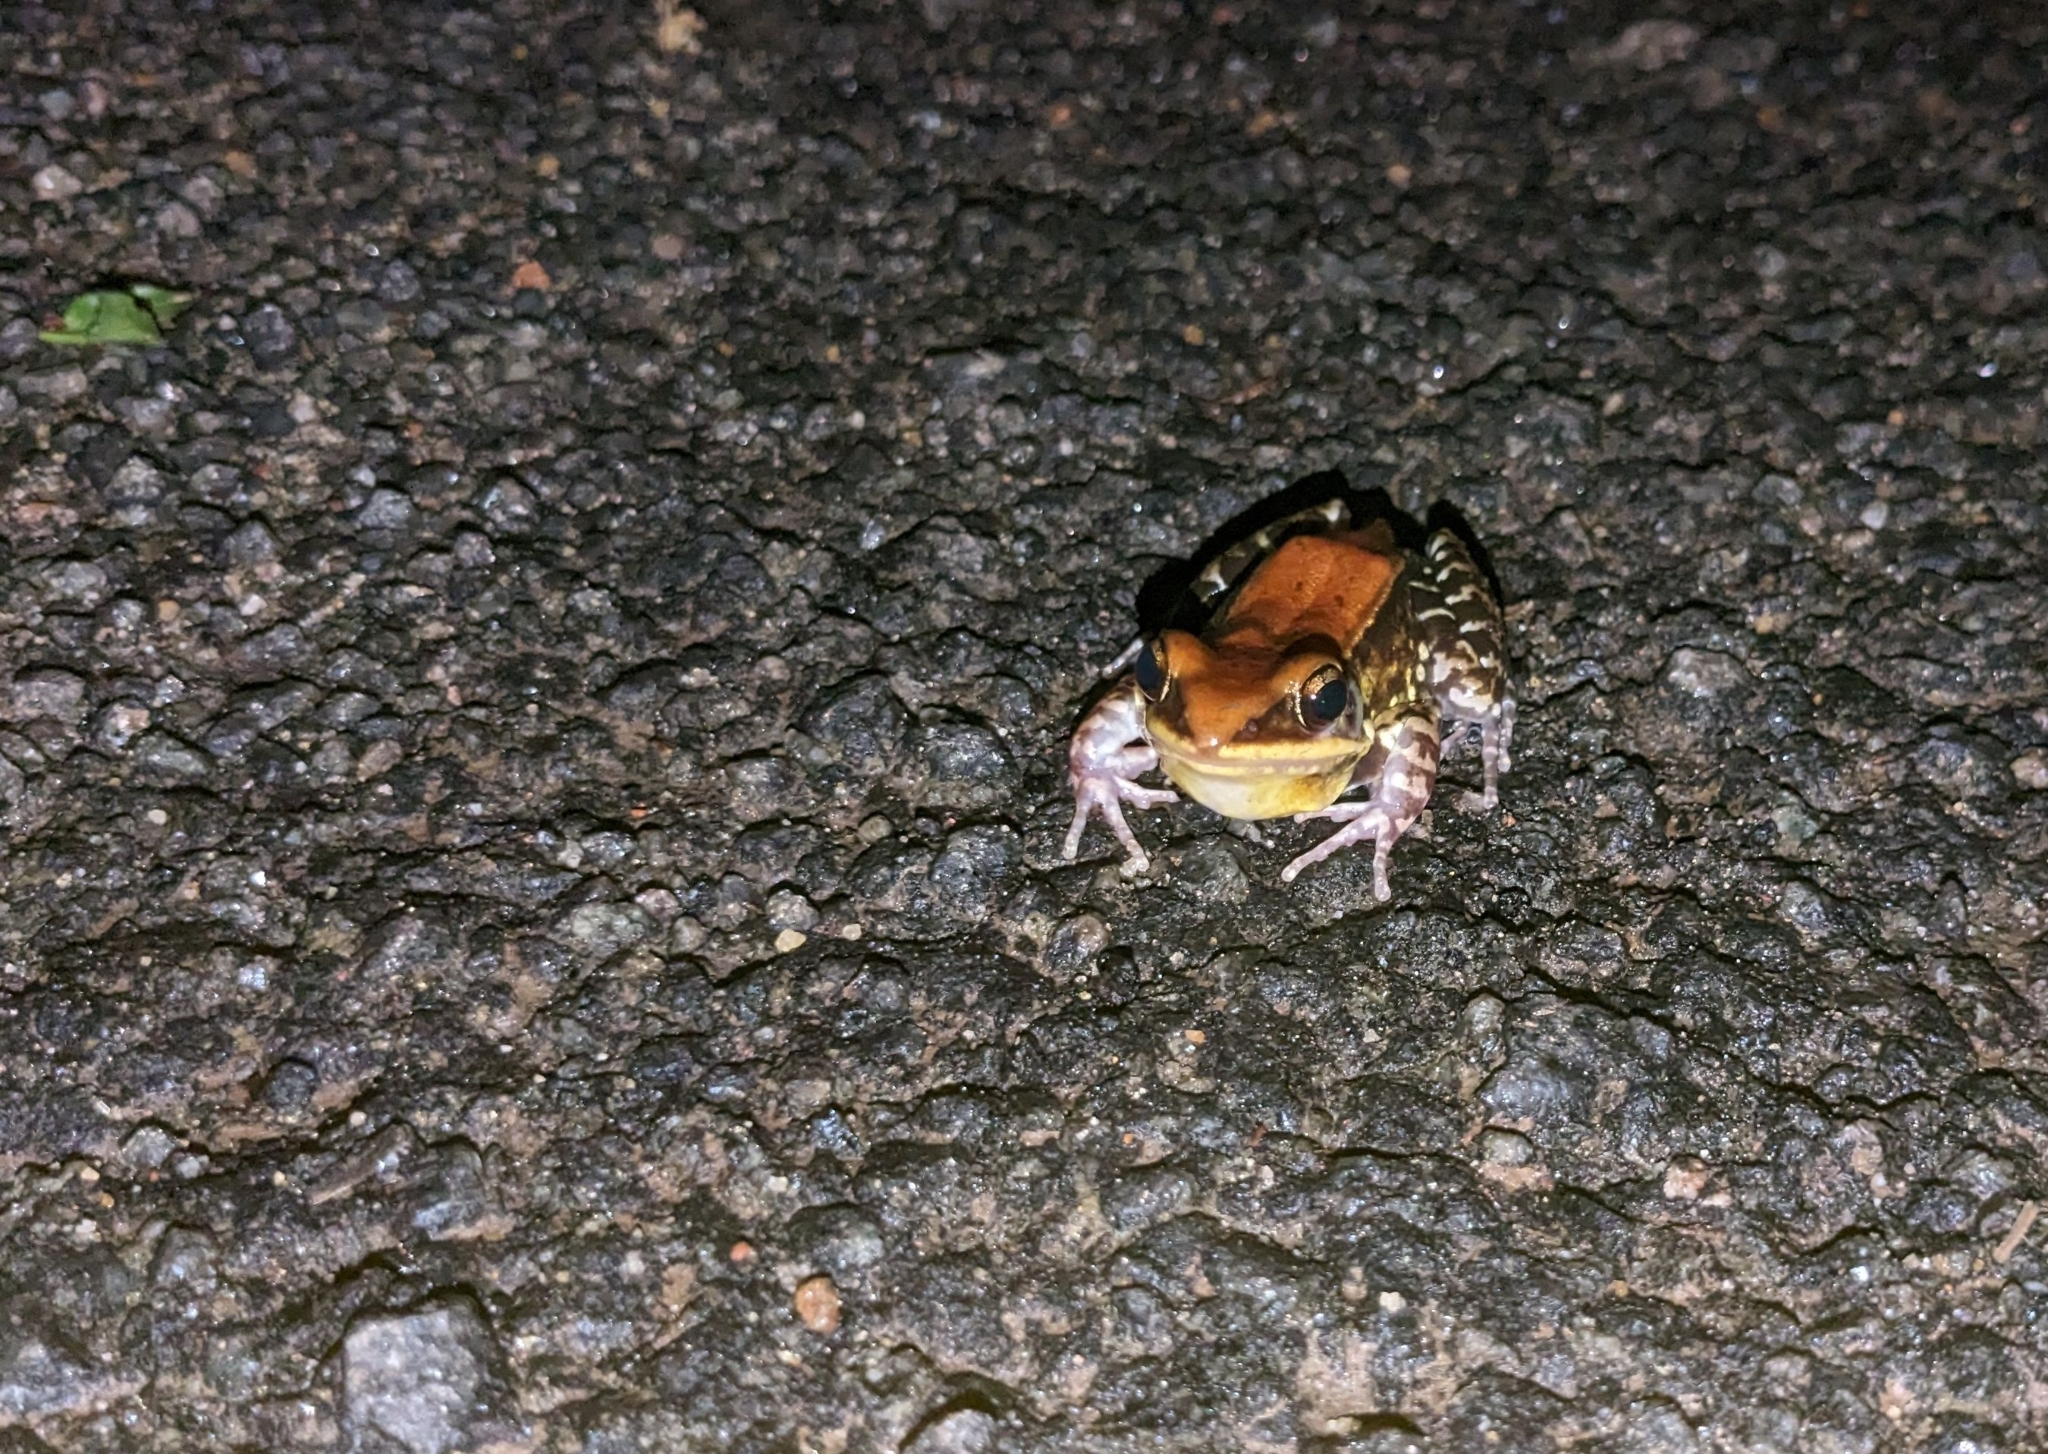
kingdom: Animalia
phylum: Chordata
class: Amphibia
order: Anura
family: Ranidae
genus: Hydrophylax
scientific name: Hydrophylax malabaricus
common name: Malabar fungoid frog
